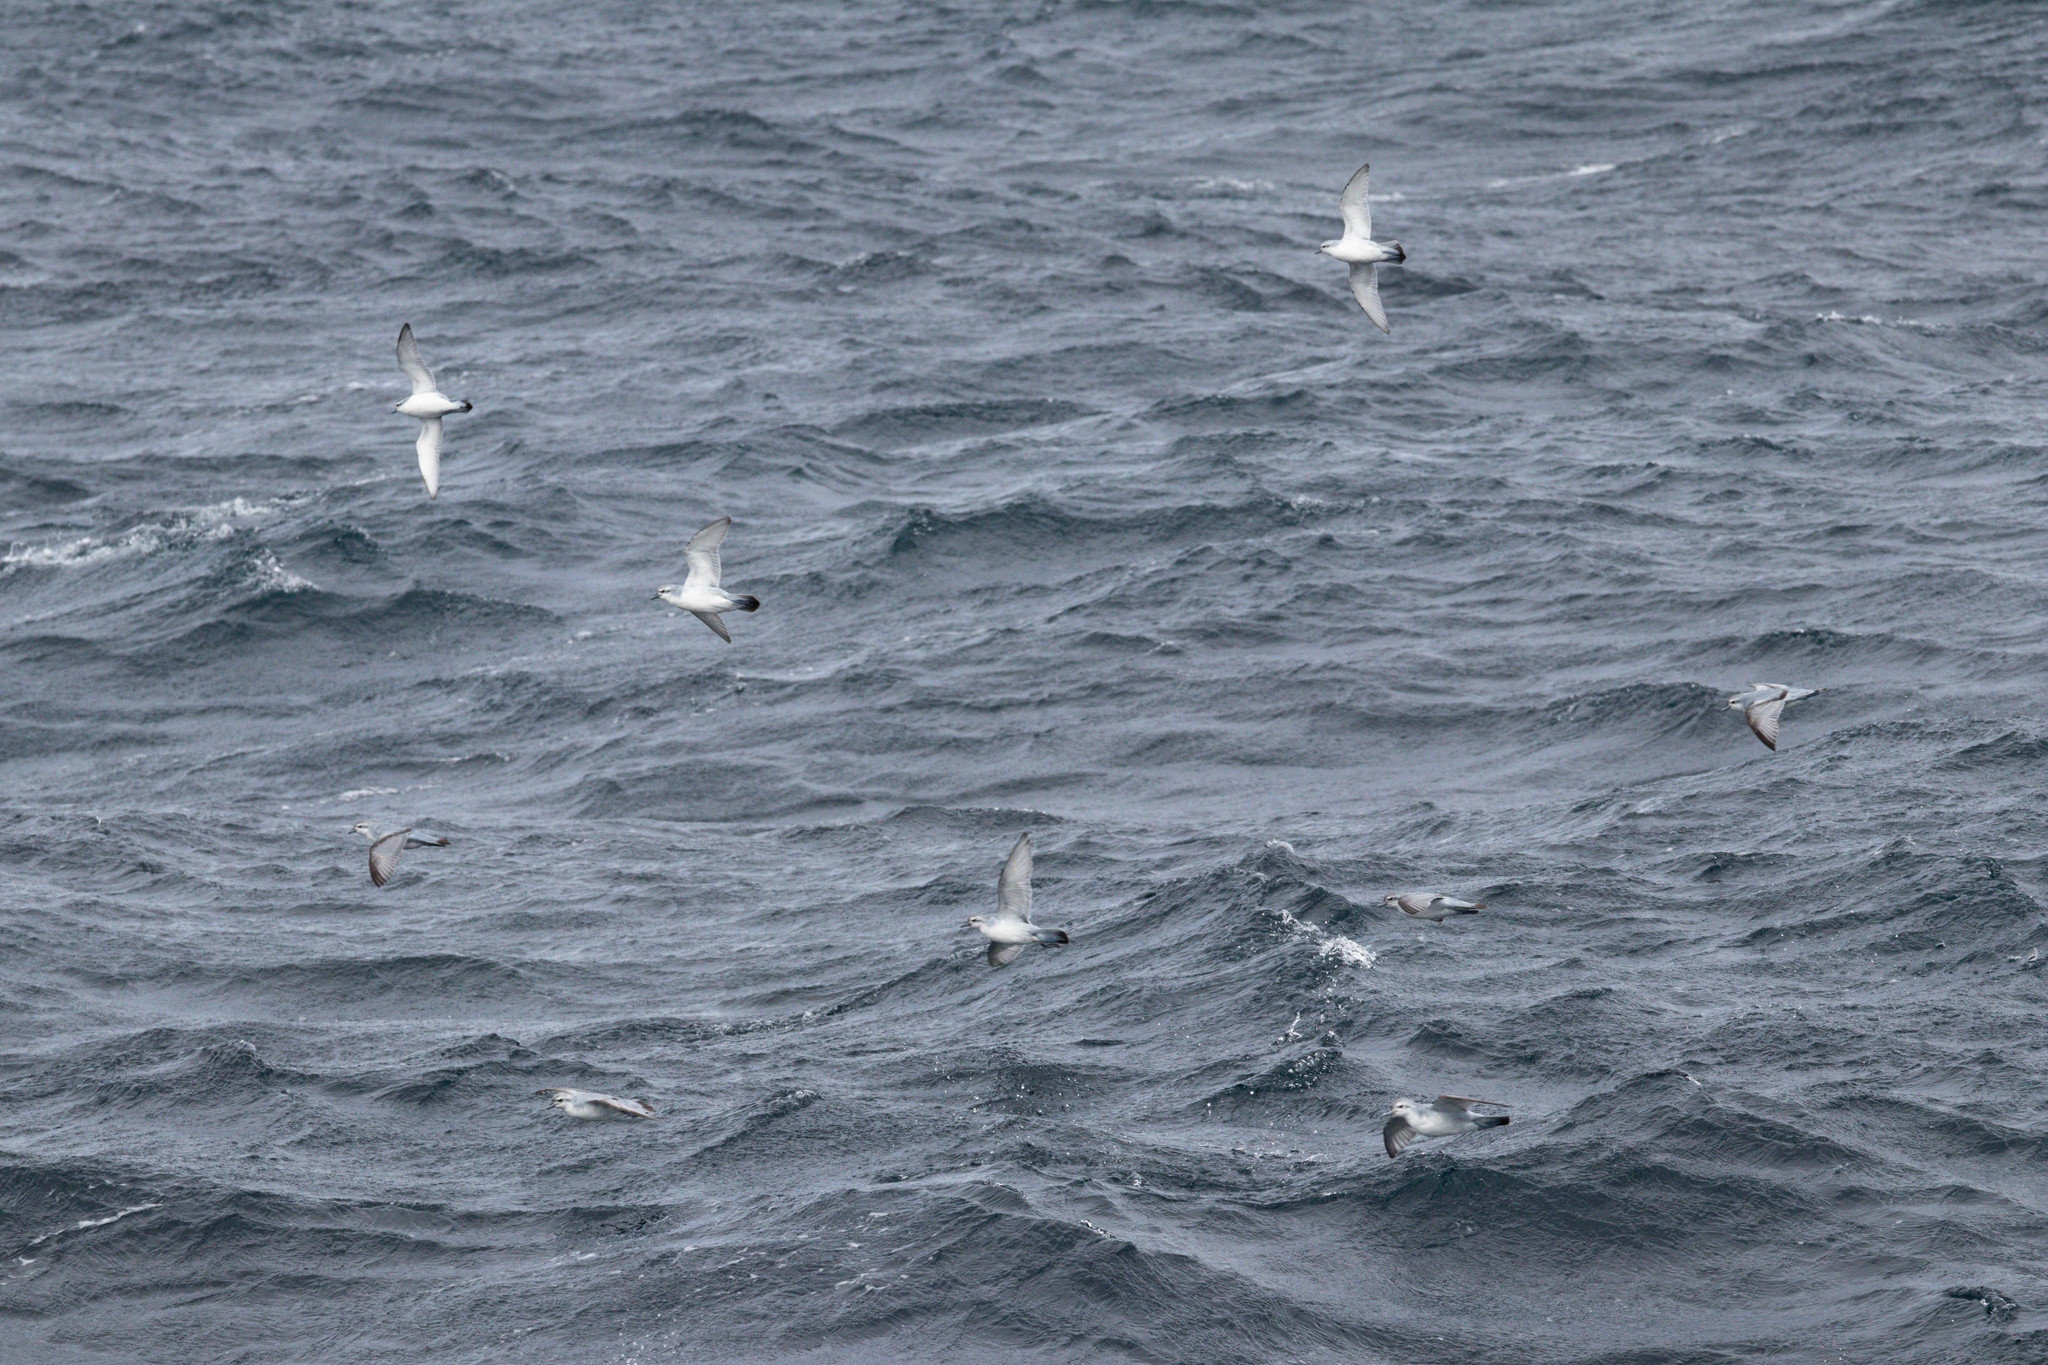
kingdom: Animalia
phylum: Chordata
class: Aves
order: Procellariiformes
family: Procellariidae
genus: Pachyptila
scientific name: Pachyptila turtur
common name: Fairy prion
